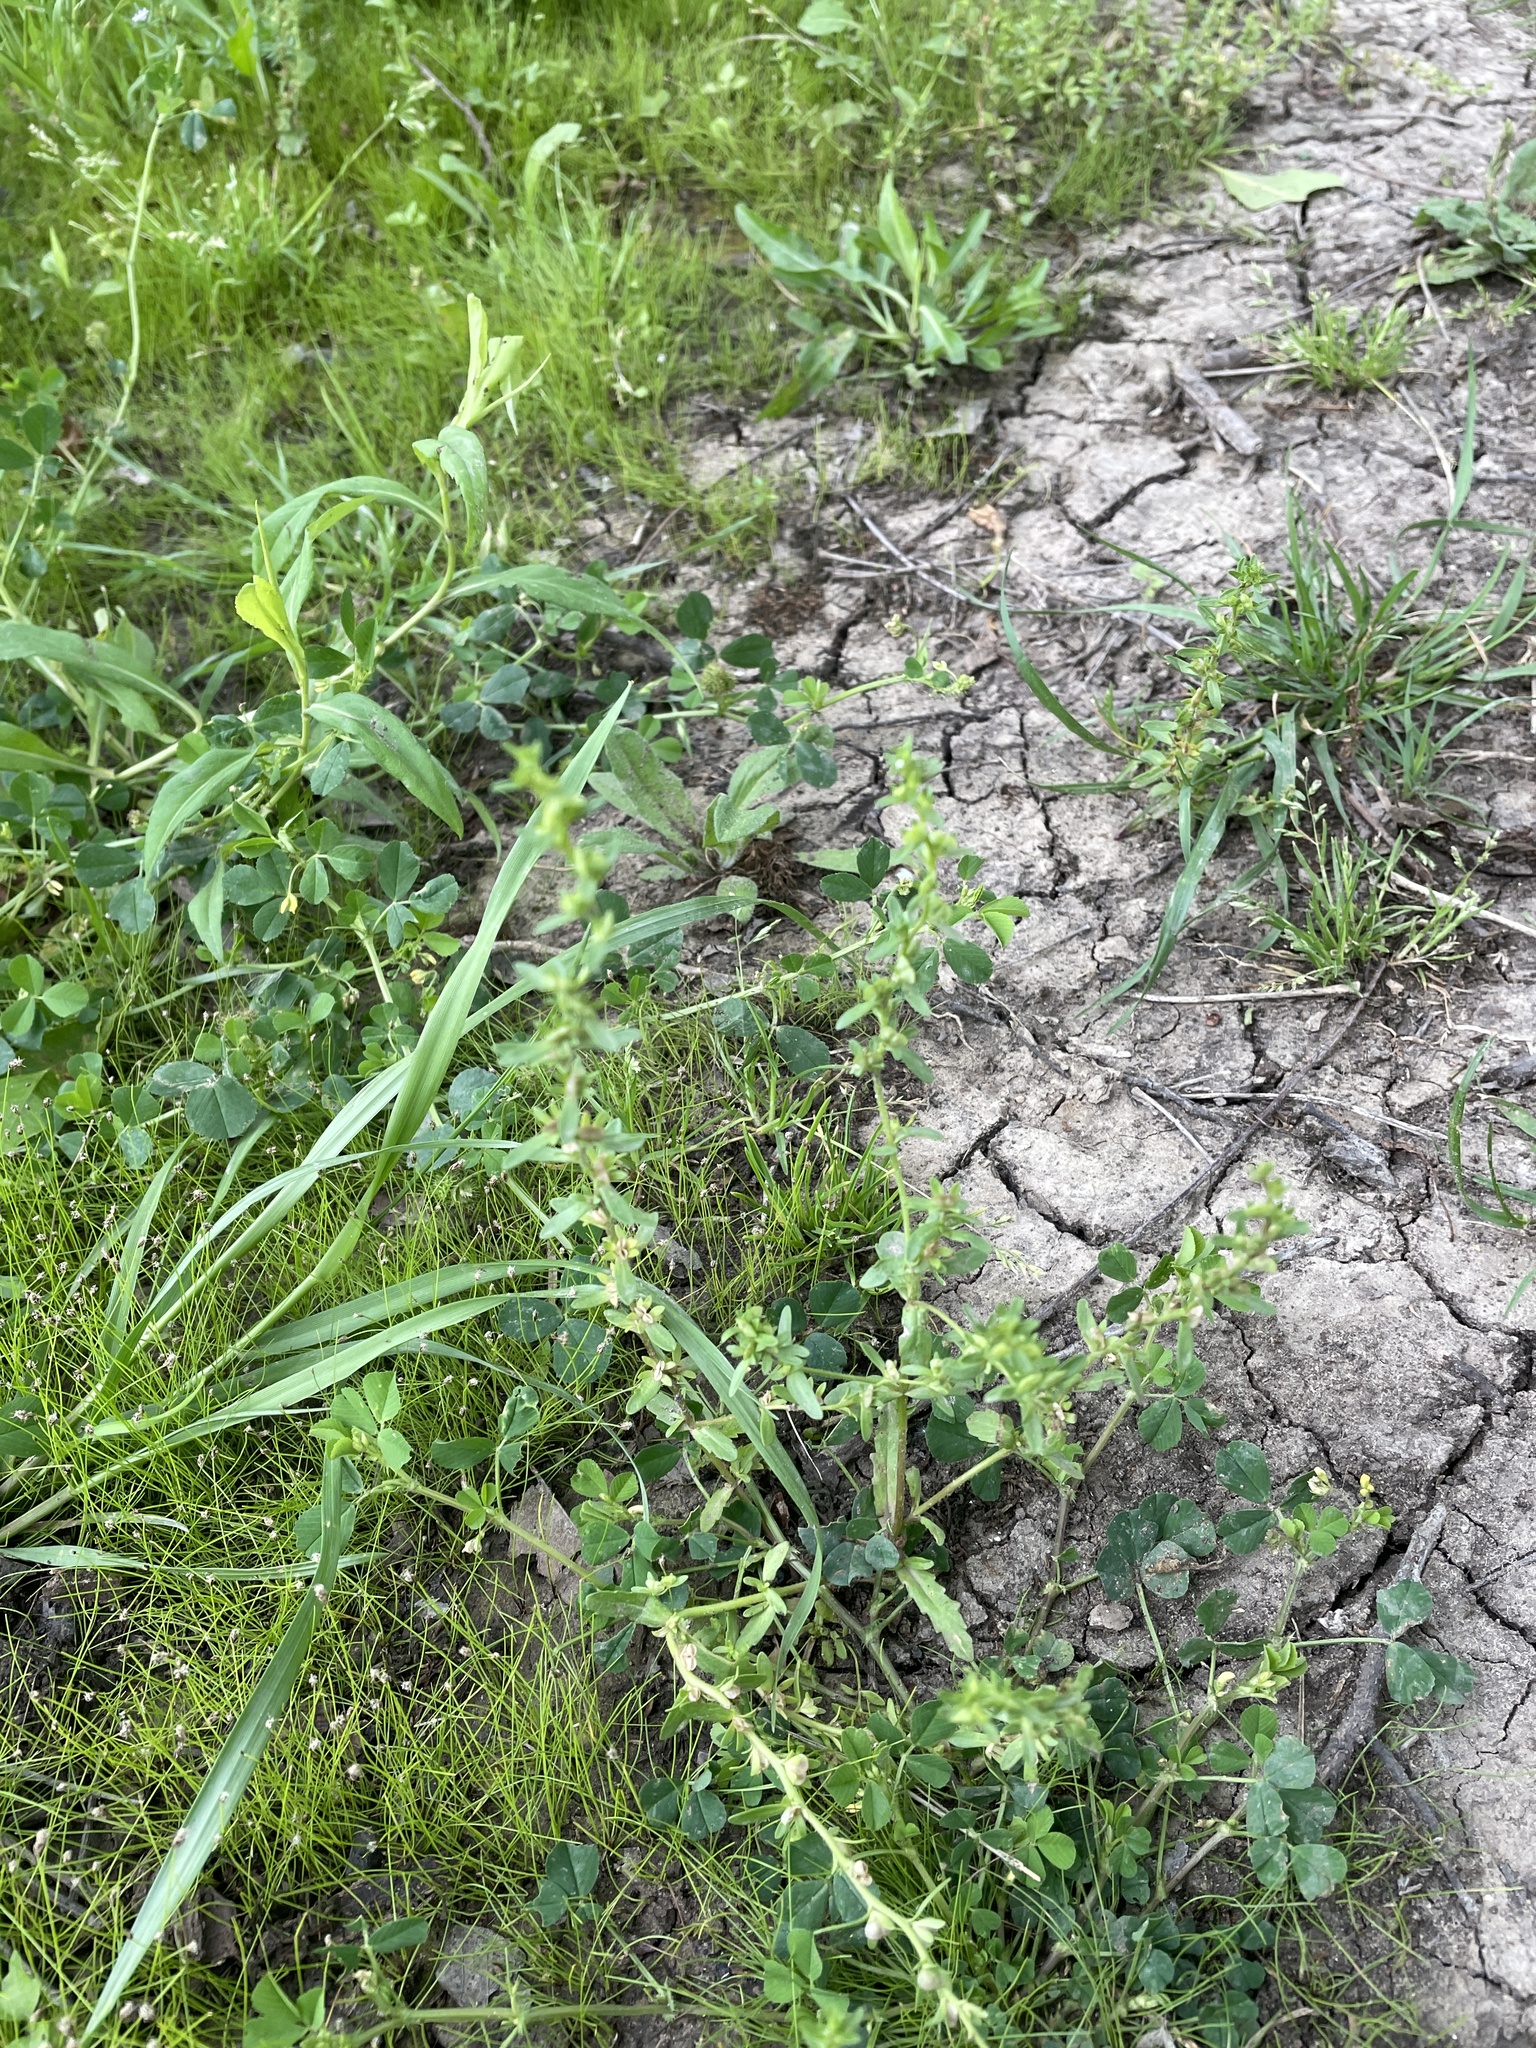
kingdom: Plantae
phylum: Tracheophyta
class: Magnoliopsida
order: Lamiales
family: Plantaginaceae
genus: Veronica
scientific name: Veronica peregrina
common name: Neckweed
